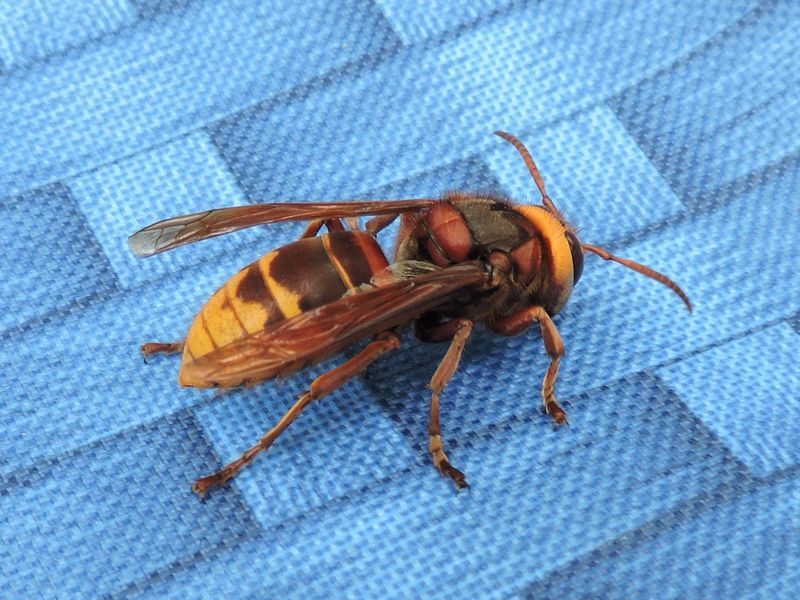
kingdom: Animalia
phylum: Arthropoda
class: Insecta
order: Hymenoptera
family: Vespidae
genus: Vespa
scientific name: Vespa crabro
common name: Hornet
